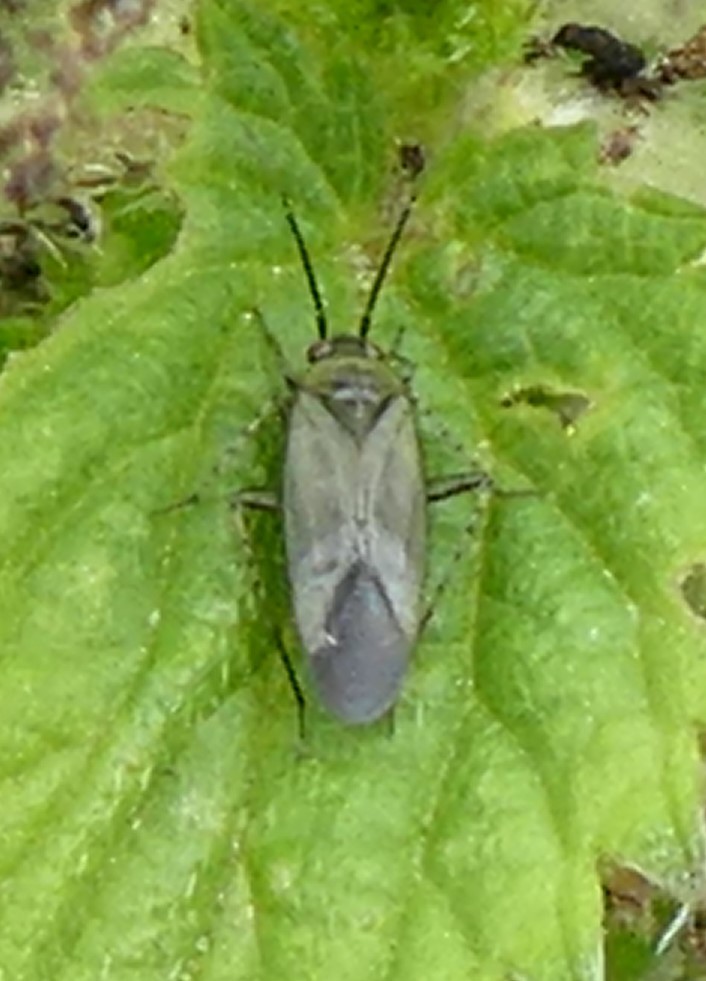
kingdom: Animalia
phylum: Arthropoda
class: Insecta
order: Hemiptera
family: Miridae
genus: Plagiognathus
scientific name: Plagiognathus arbustorum
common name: Plant bug
